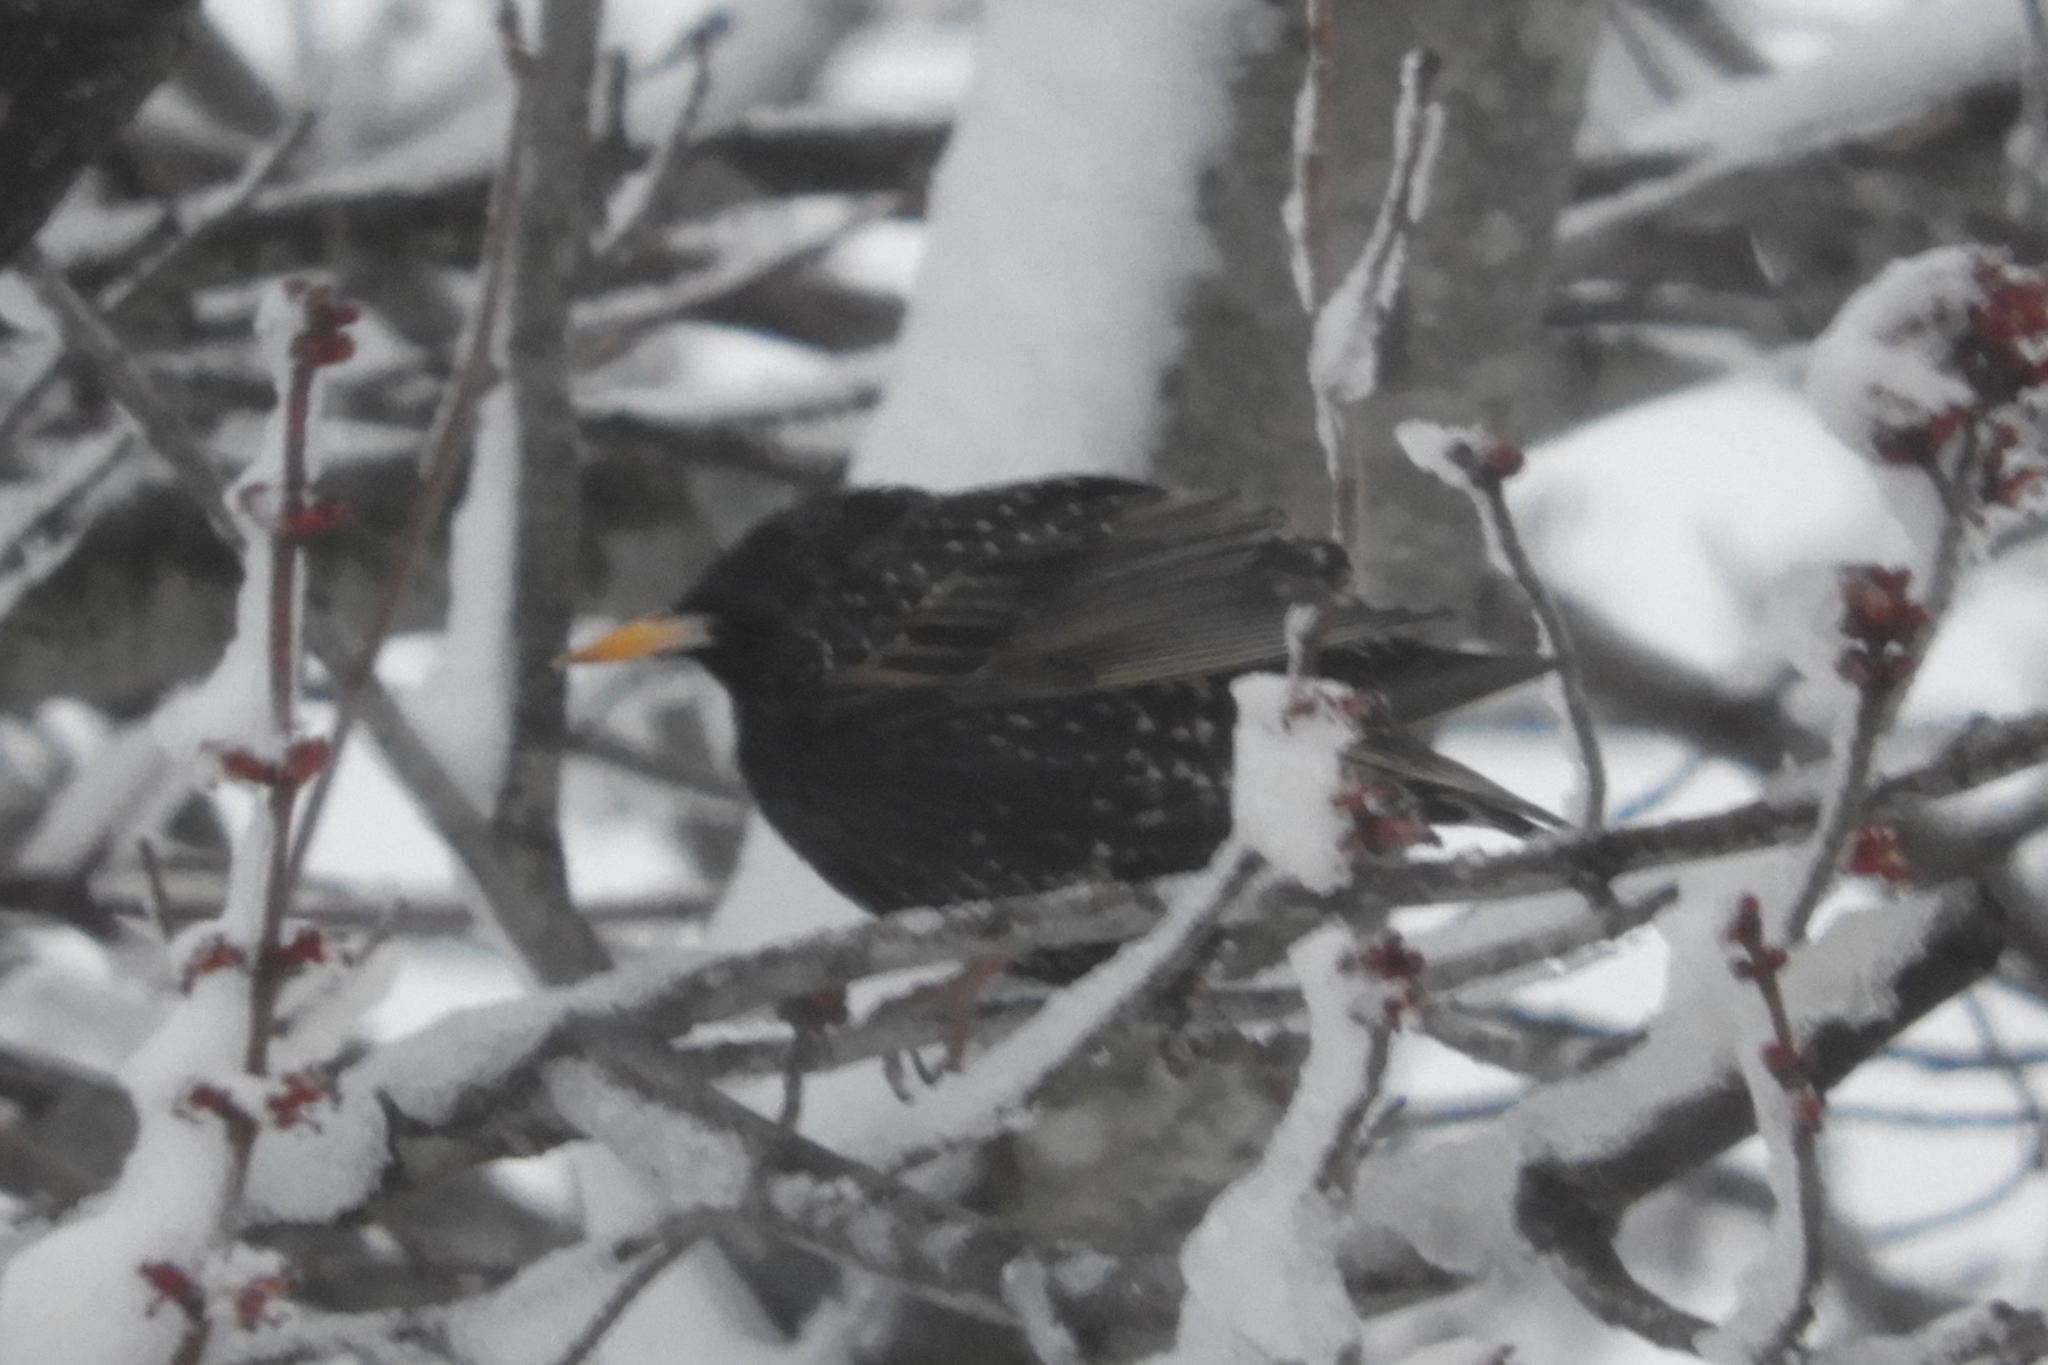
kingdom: Animalia
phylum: Chordata
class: Aves
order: Passeriformes
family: Sturnidae
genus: Sturnus
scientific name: Sturnus vulgaris
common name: Common starling
